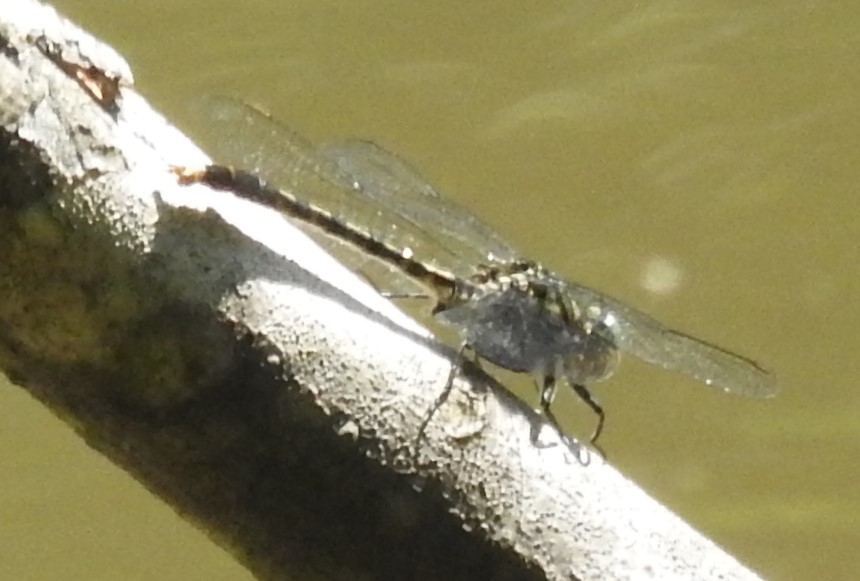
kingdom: Animalia
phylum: Arthropoda
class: Insecta
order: Odonata
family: Gomphidae
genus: Arigomphus
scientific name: Arigomphus villosipes
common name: Unicorn clubtail
